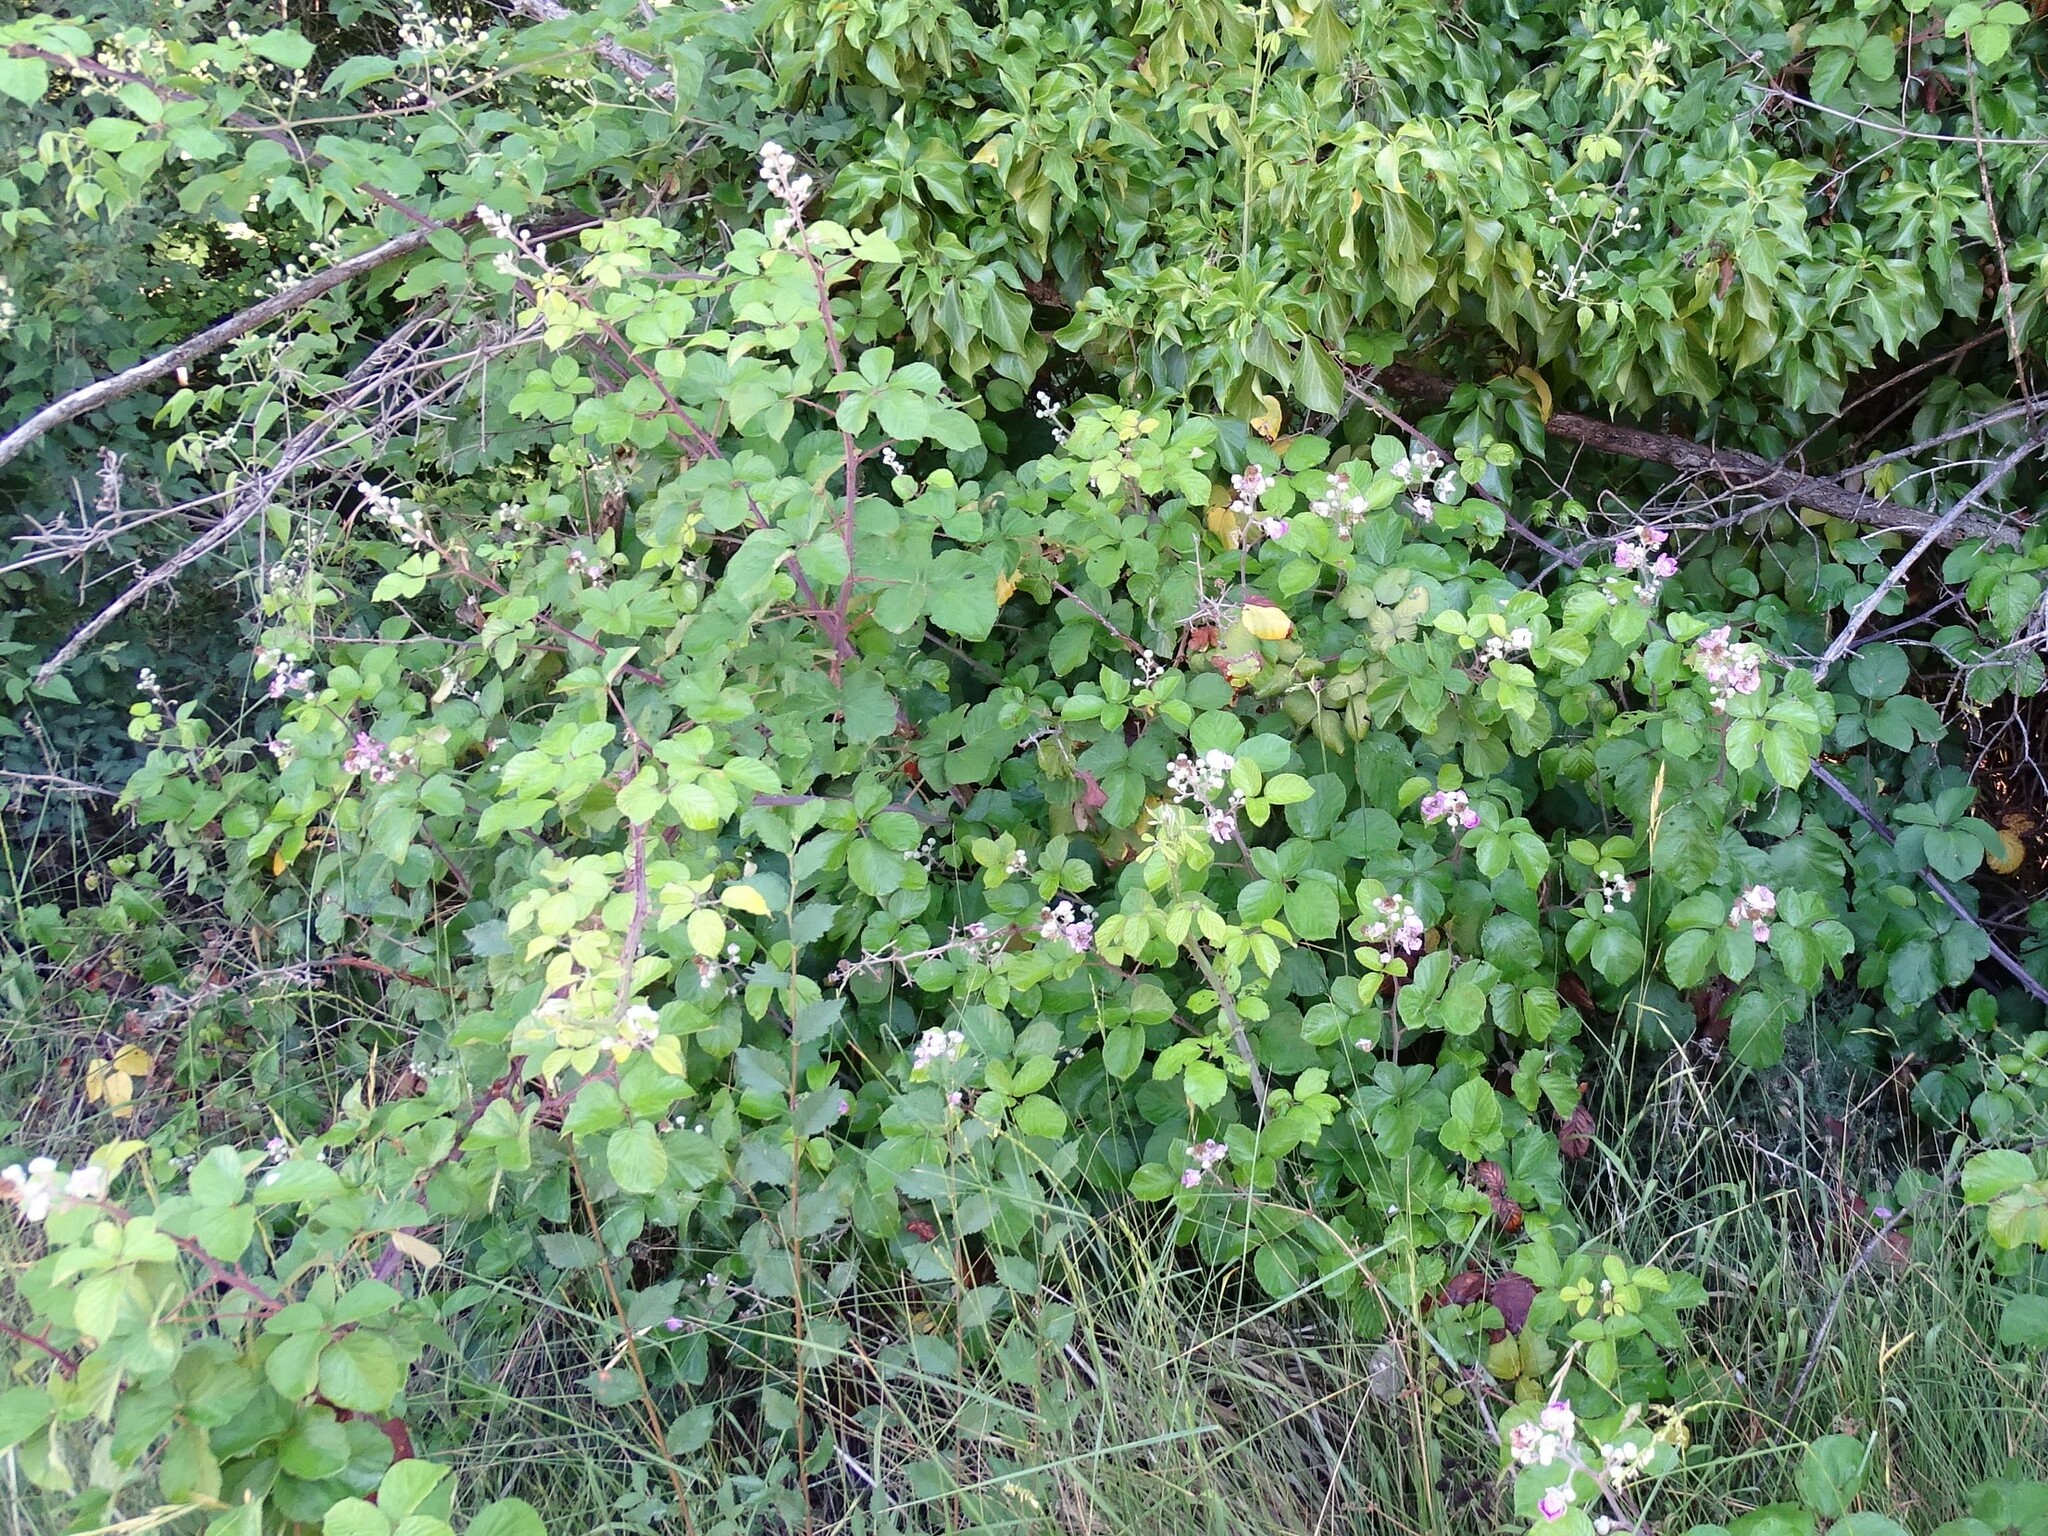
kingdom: Plantae
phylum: Tracheophyta
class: Magnoliopsida
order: Rosales
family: Rosaceae
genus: Rubus
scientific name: Rubus ulmifolius
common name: Elmleaf blackberry
